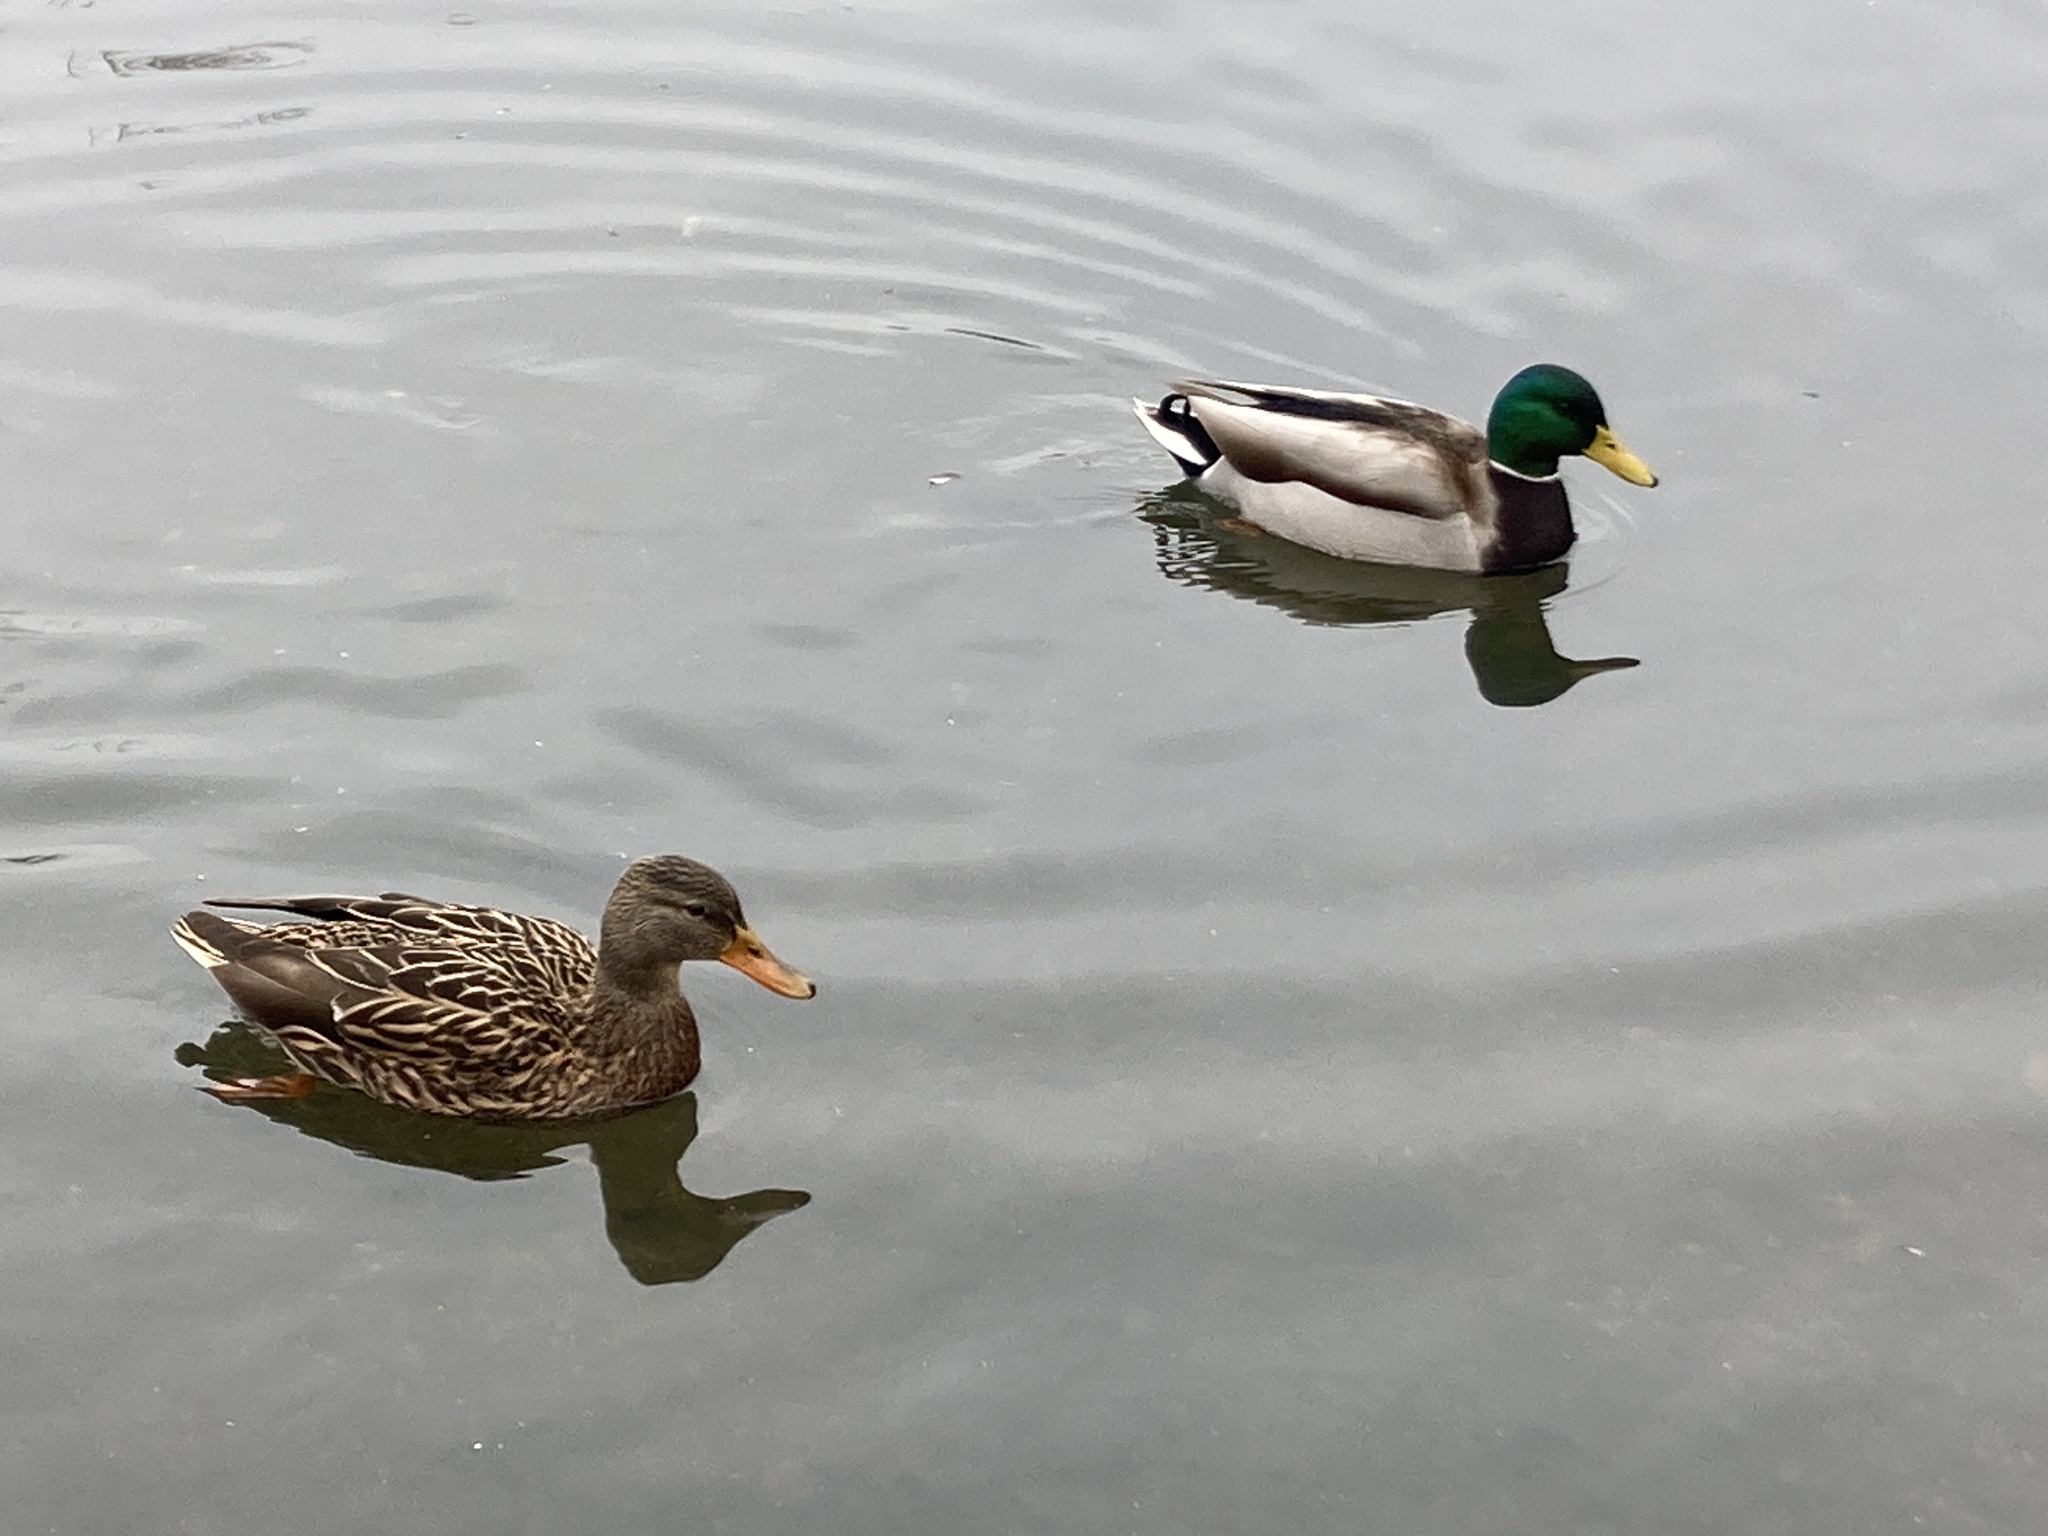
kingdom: Animalia
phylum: Chordata
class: Aves
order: Anseriformes
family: Anatidae
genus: Anas
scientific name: Anas platyrhynchos
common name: Mallard
